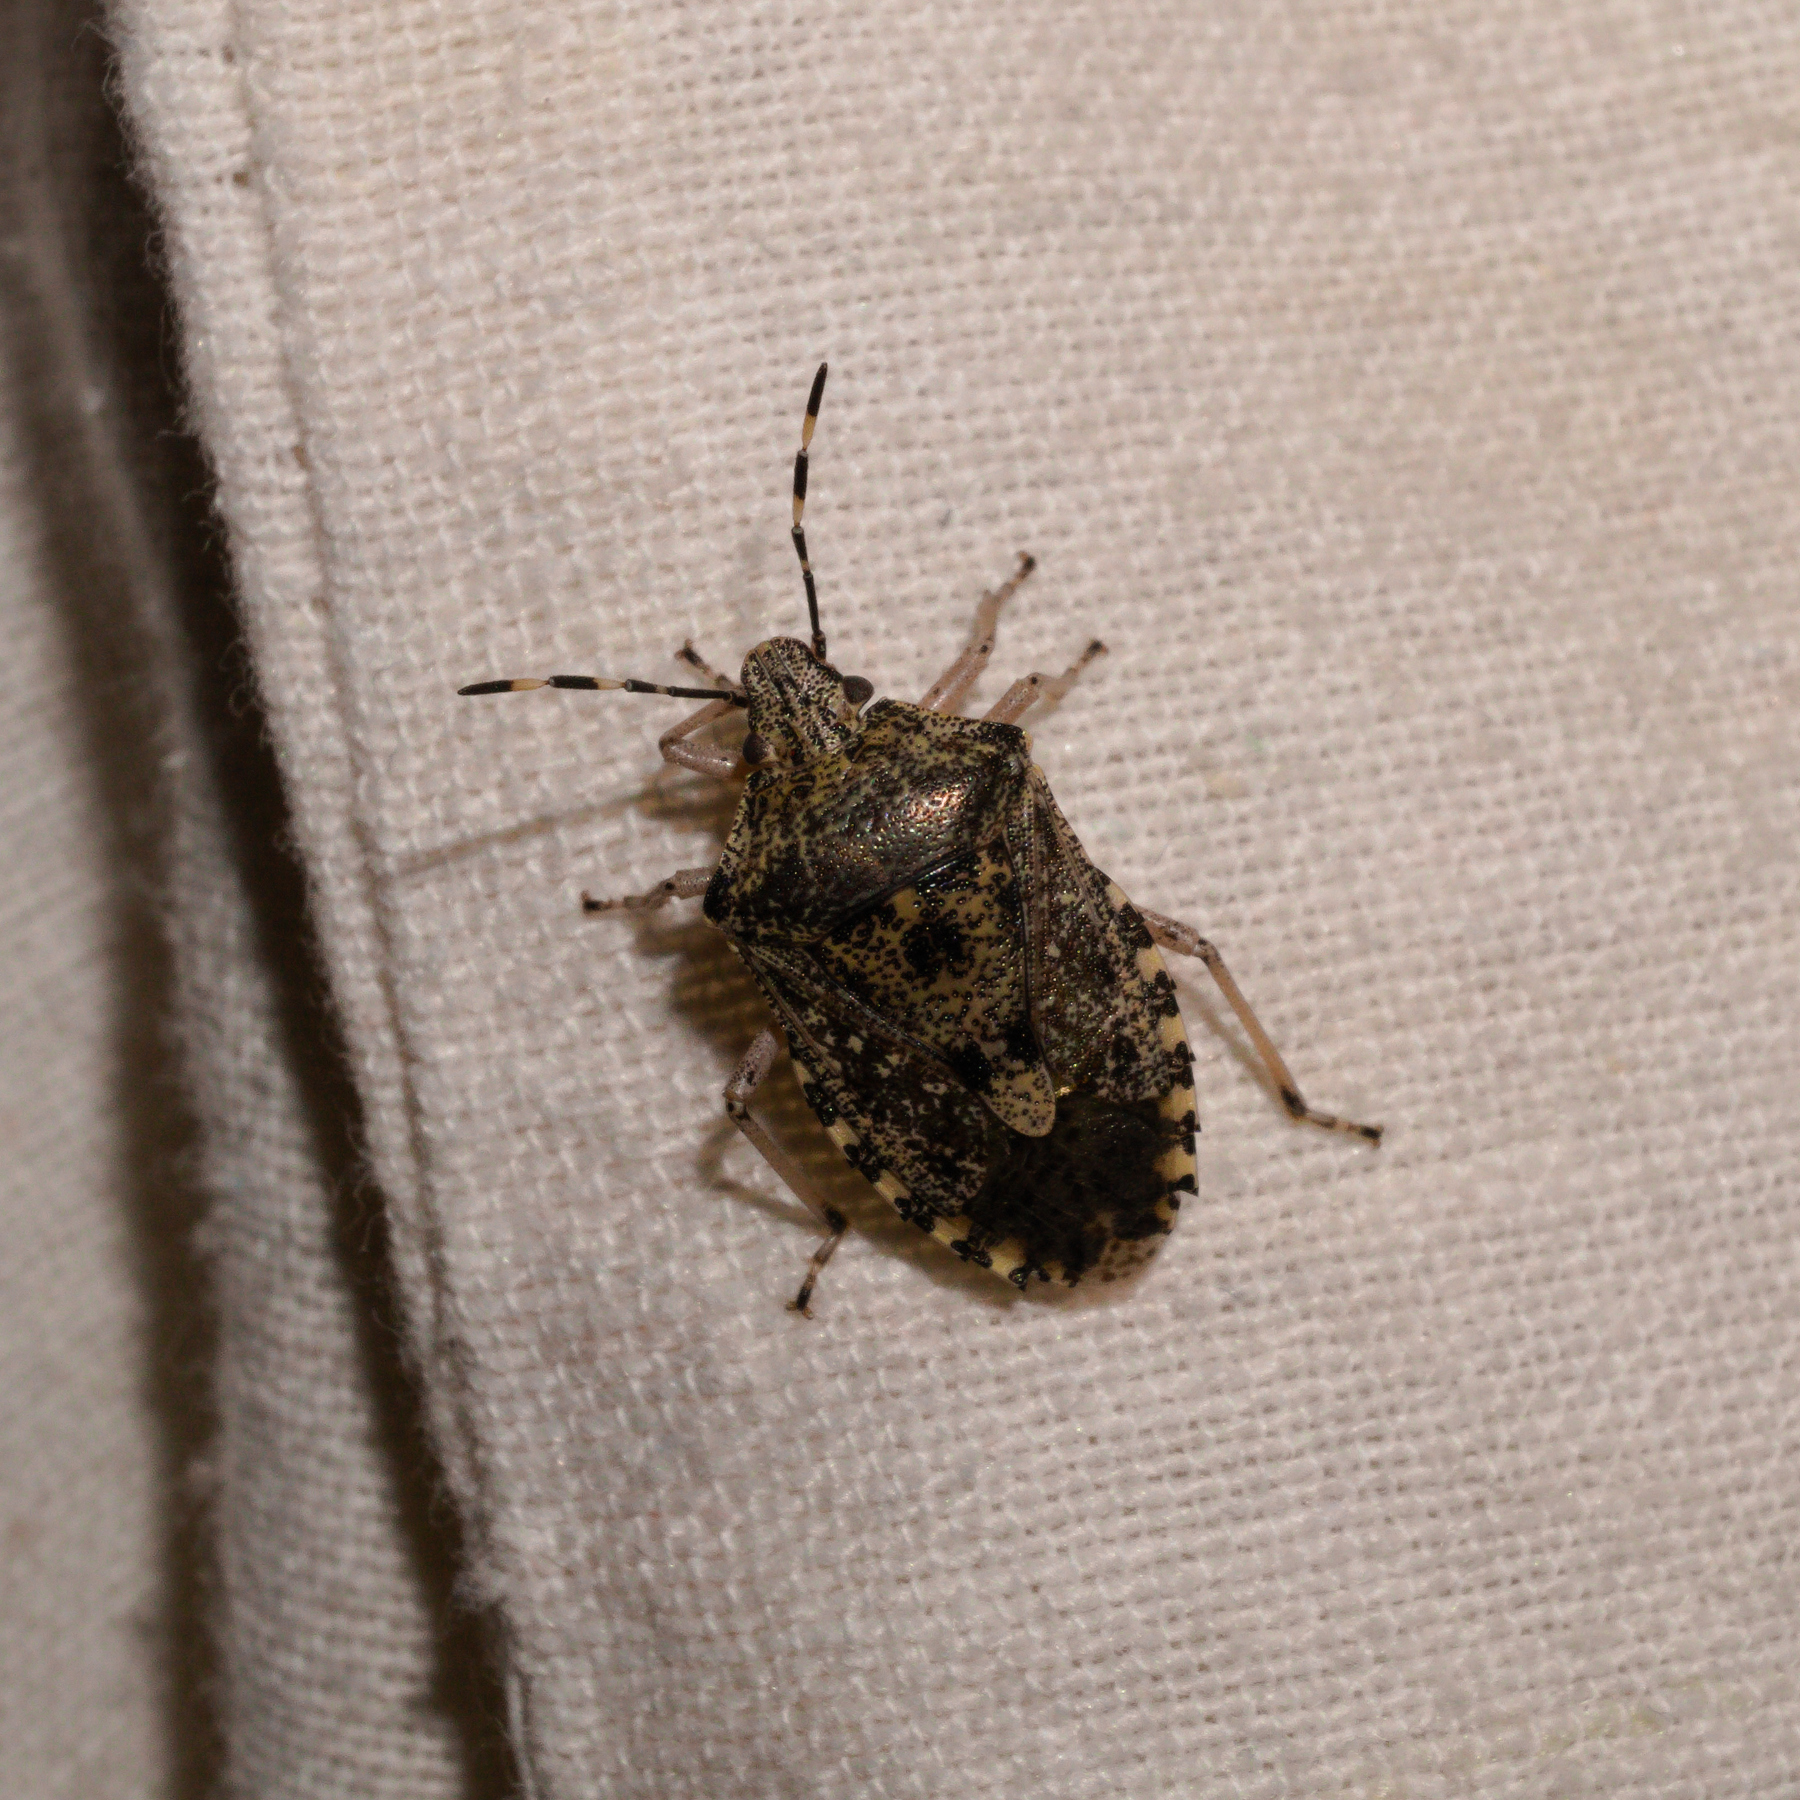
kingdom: Animalia
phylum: Arthropoda
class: Insecta
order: Hemiptera
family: Pentatomidae
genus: Rhaphigaster
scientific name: Rhaphigaster nebulosa
